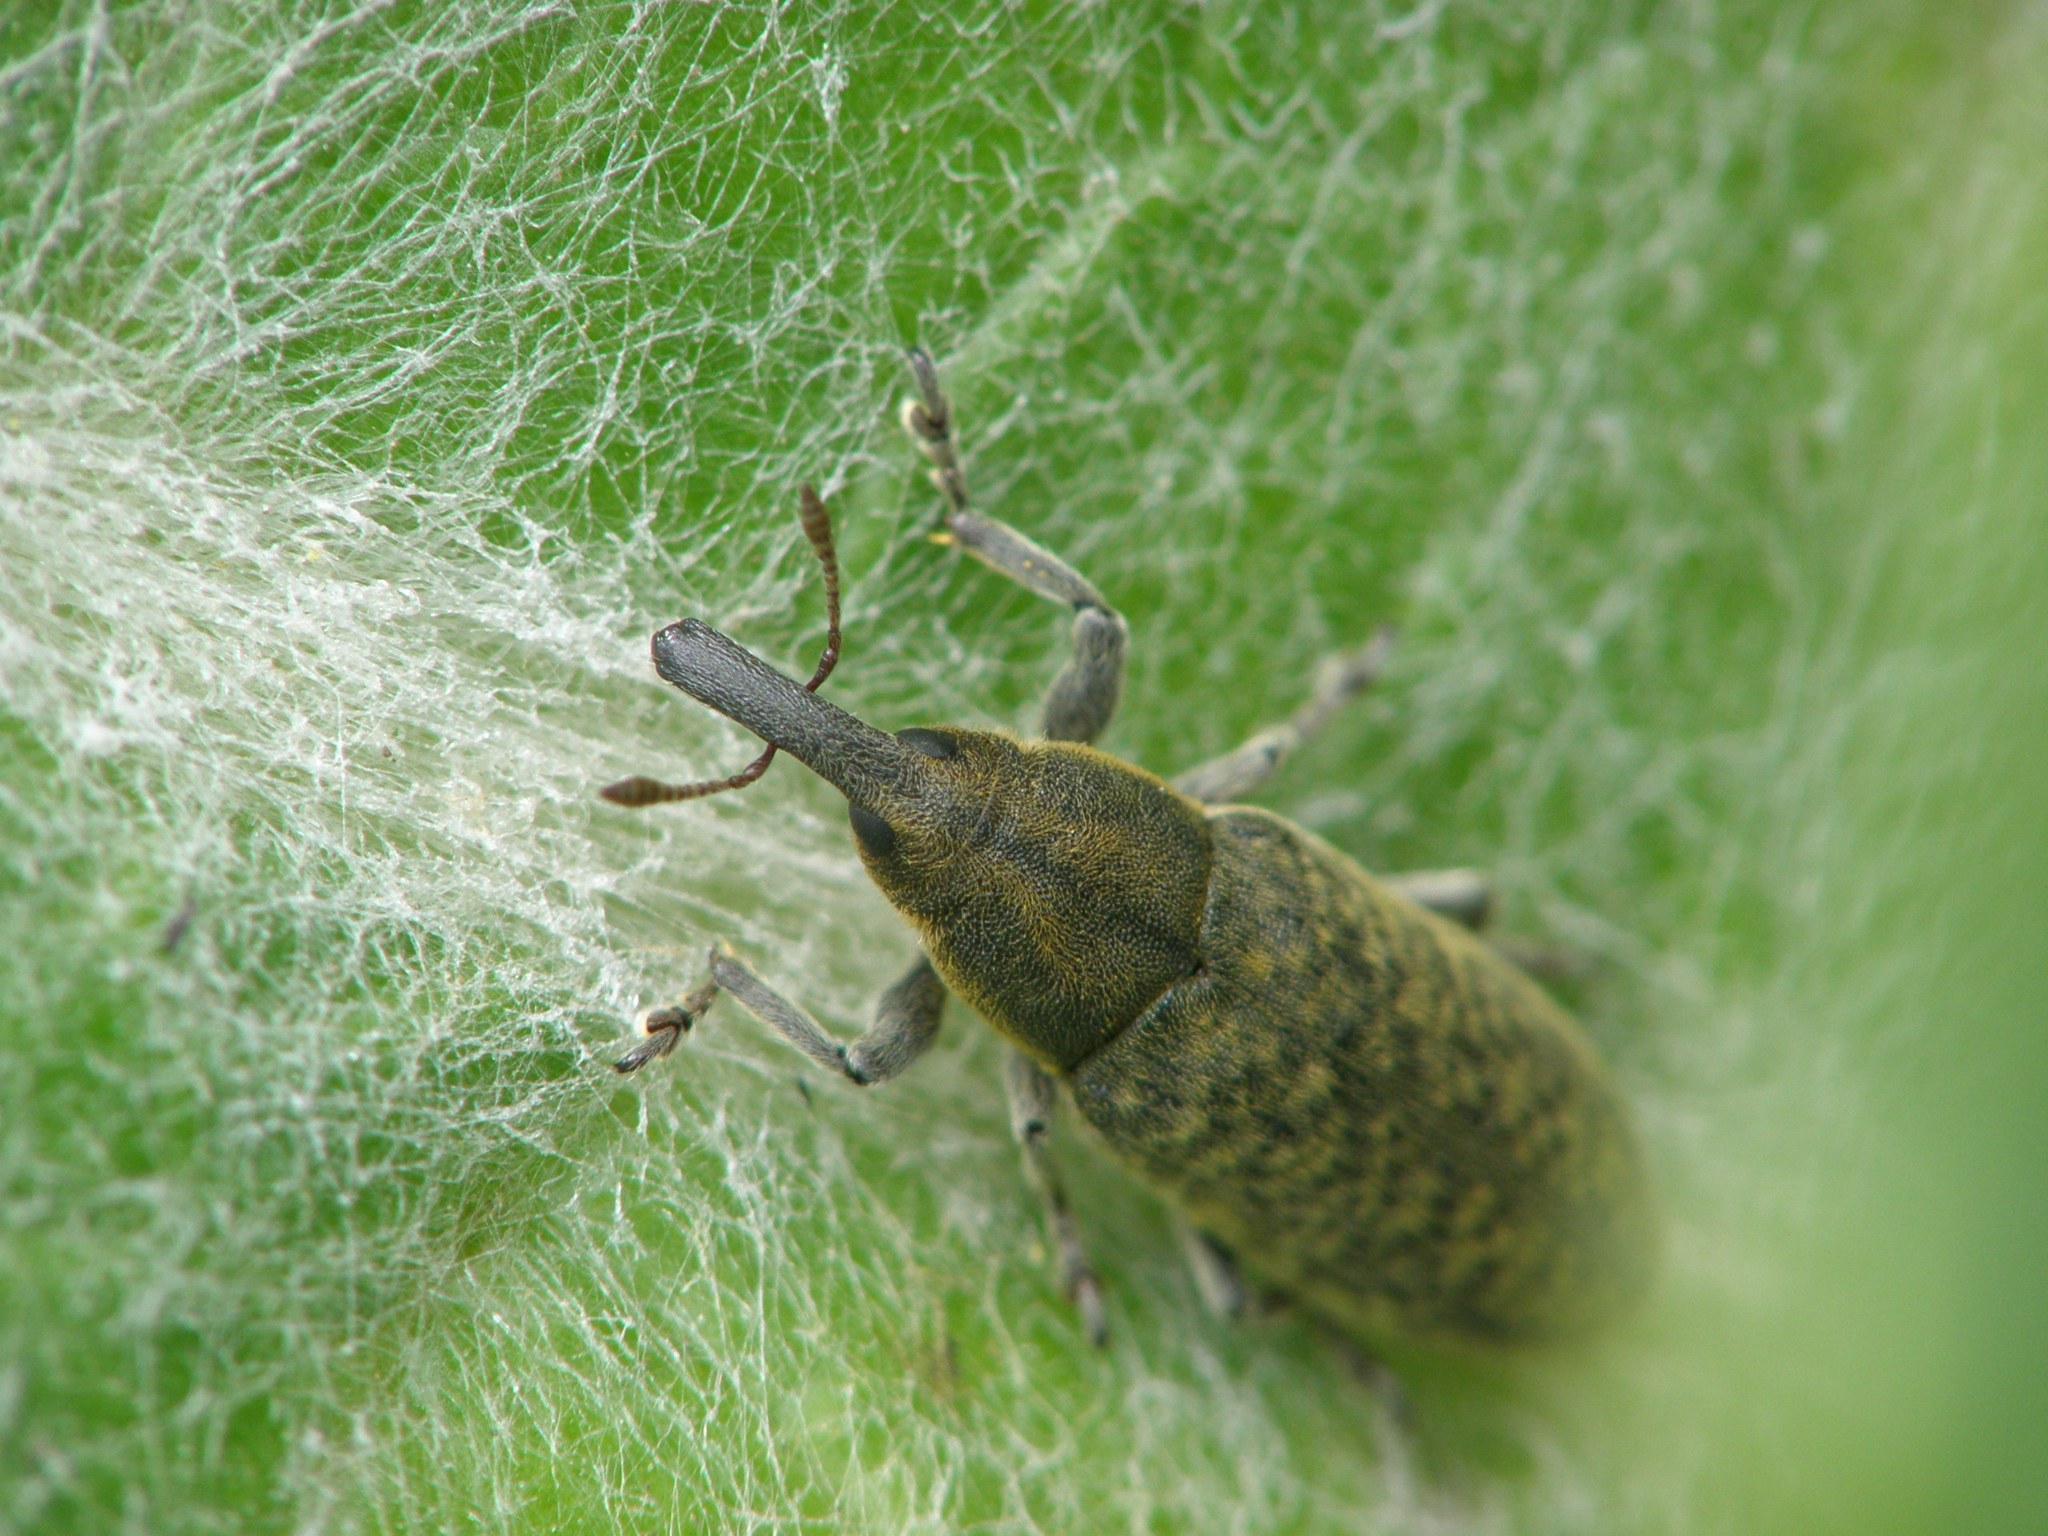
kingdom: Animalia
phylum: Arthropoda
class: Insecta
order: Coleoptera
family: Curculionidae
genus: Lixus
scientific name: Lixus cardui
